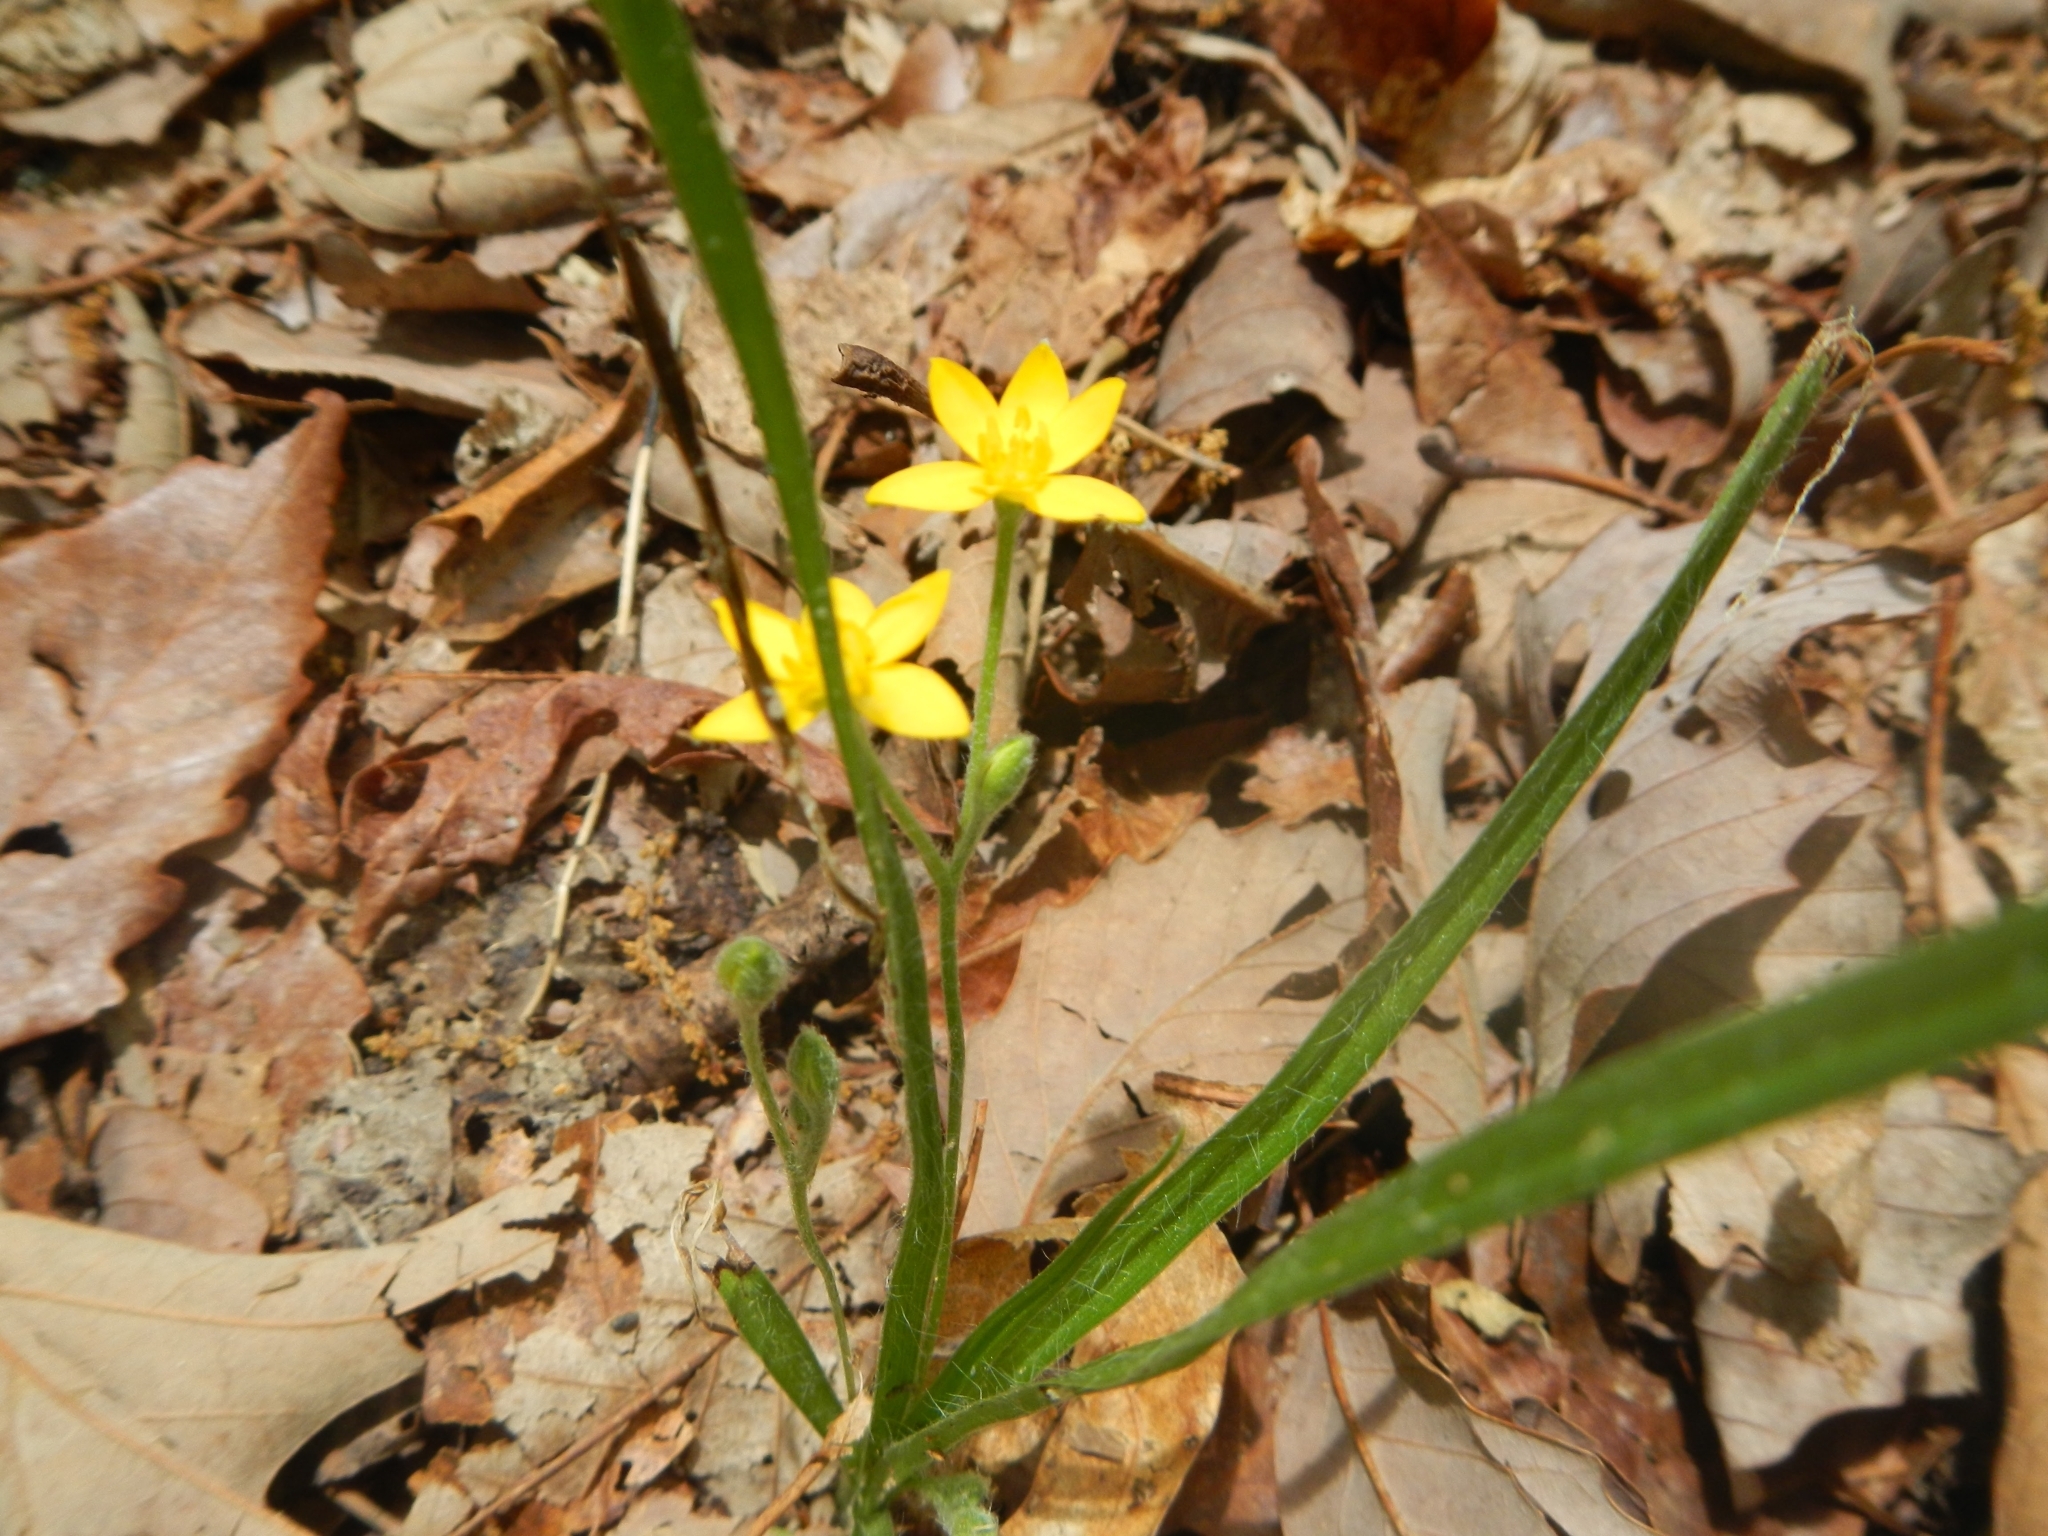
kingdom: Plantae
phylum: Tracheophyta
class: Liliopsida
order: Asparagales
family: Hypoxidaceae
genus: Hypoxis
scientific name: Hypoxis hirsuta
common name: Common goldstar
